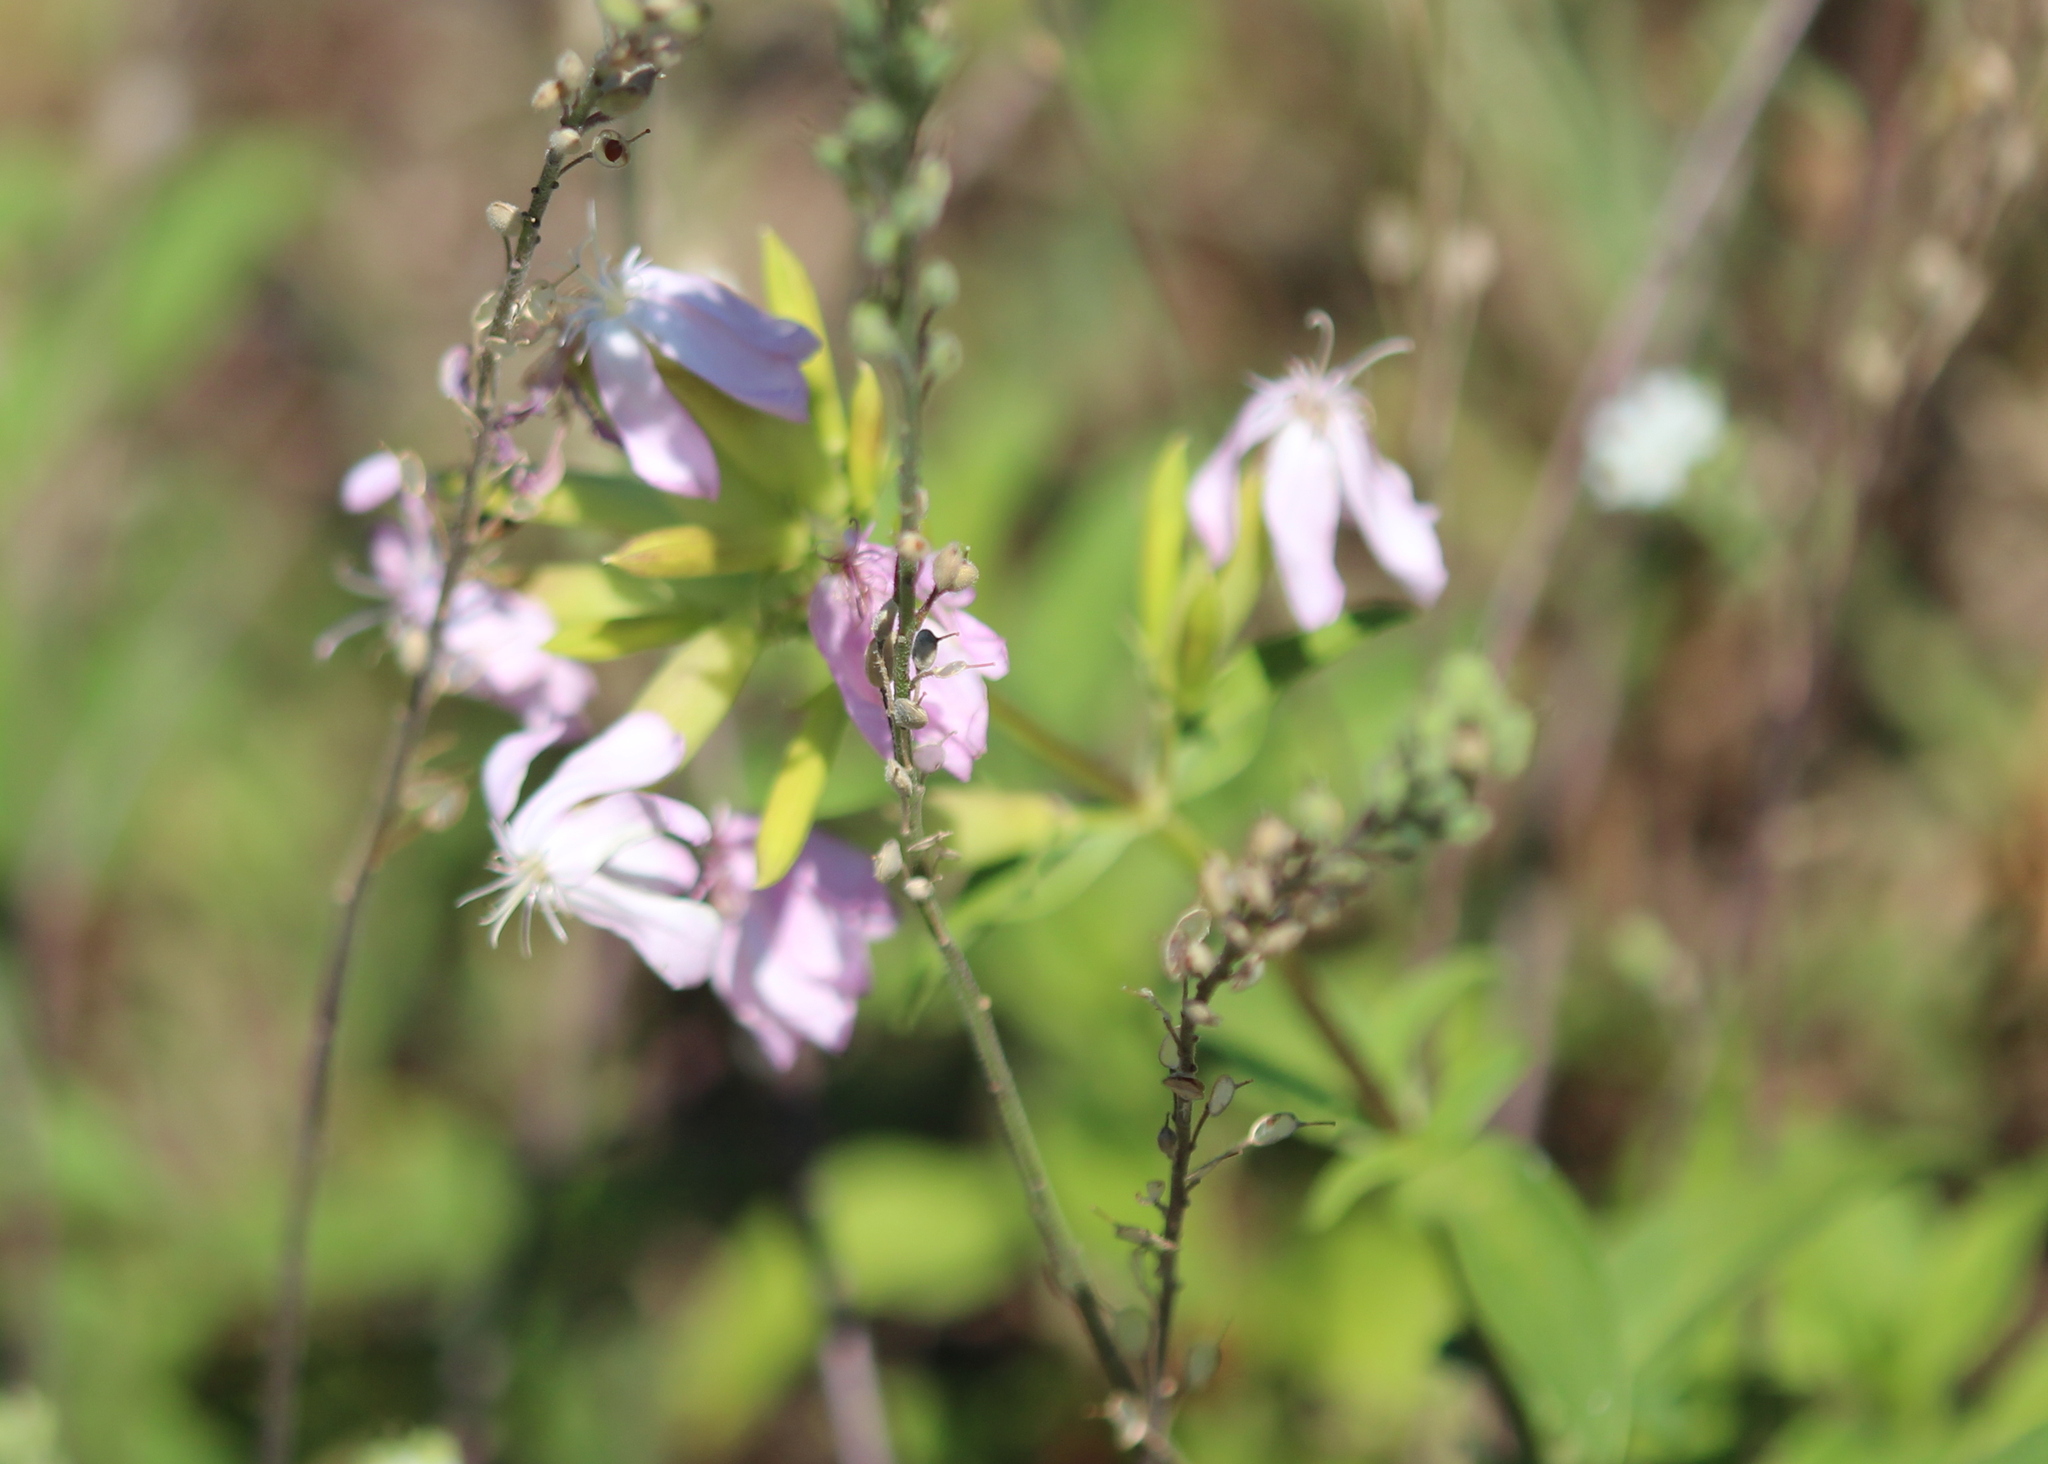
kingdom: Plantae
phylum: Tracheophyta
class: Magnoliopsida
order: Caryophyllales
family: Caryophyllaceae
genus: Saponaria
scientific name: Saponaria officinalis
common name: Soapwort
